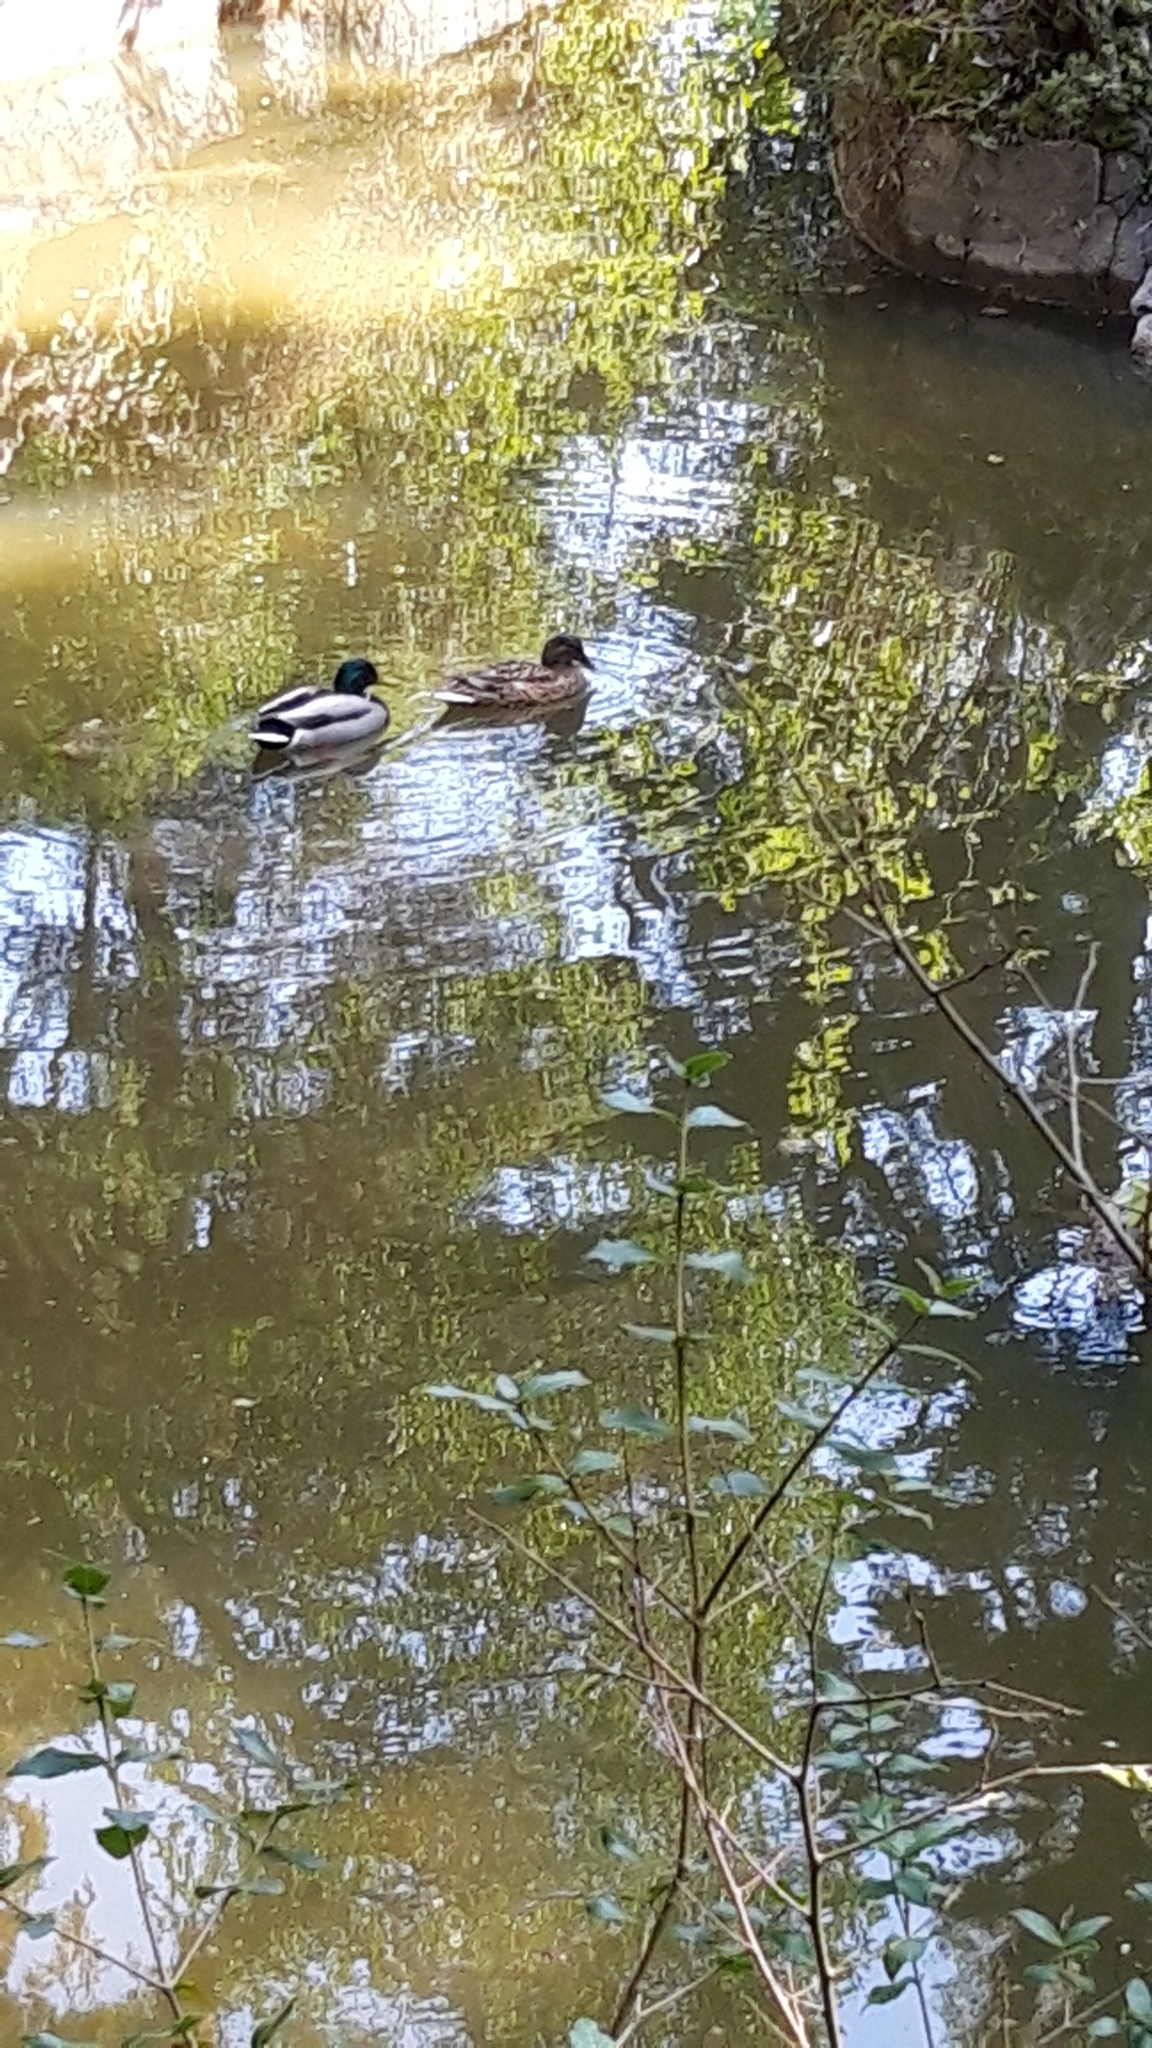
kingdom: Animalia
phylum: Chordata
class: Aves
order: Anseriformes
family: Anatidae
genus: Anas
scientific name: Anas platyrhynchos
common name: Mallard
